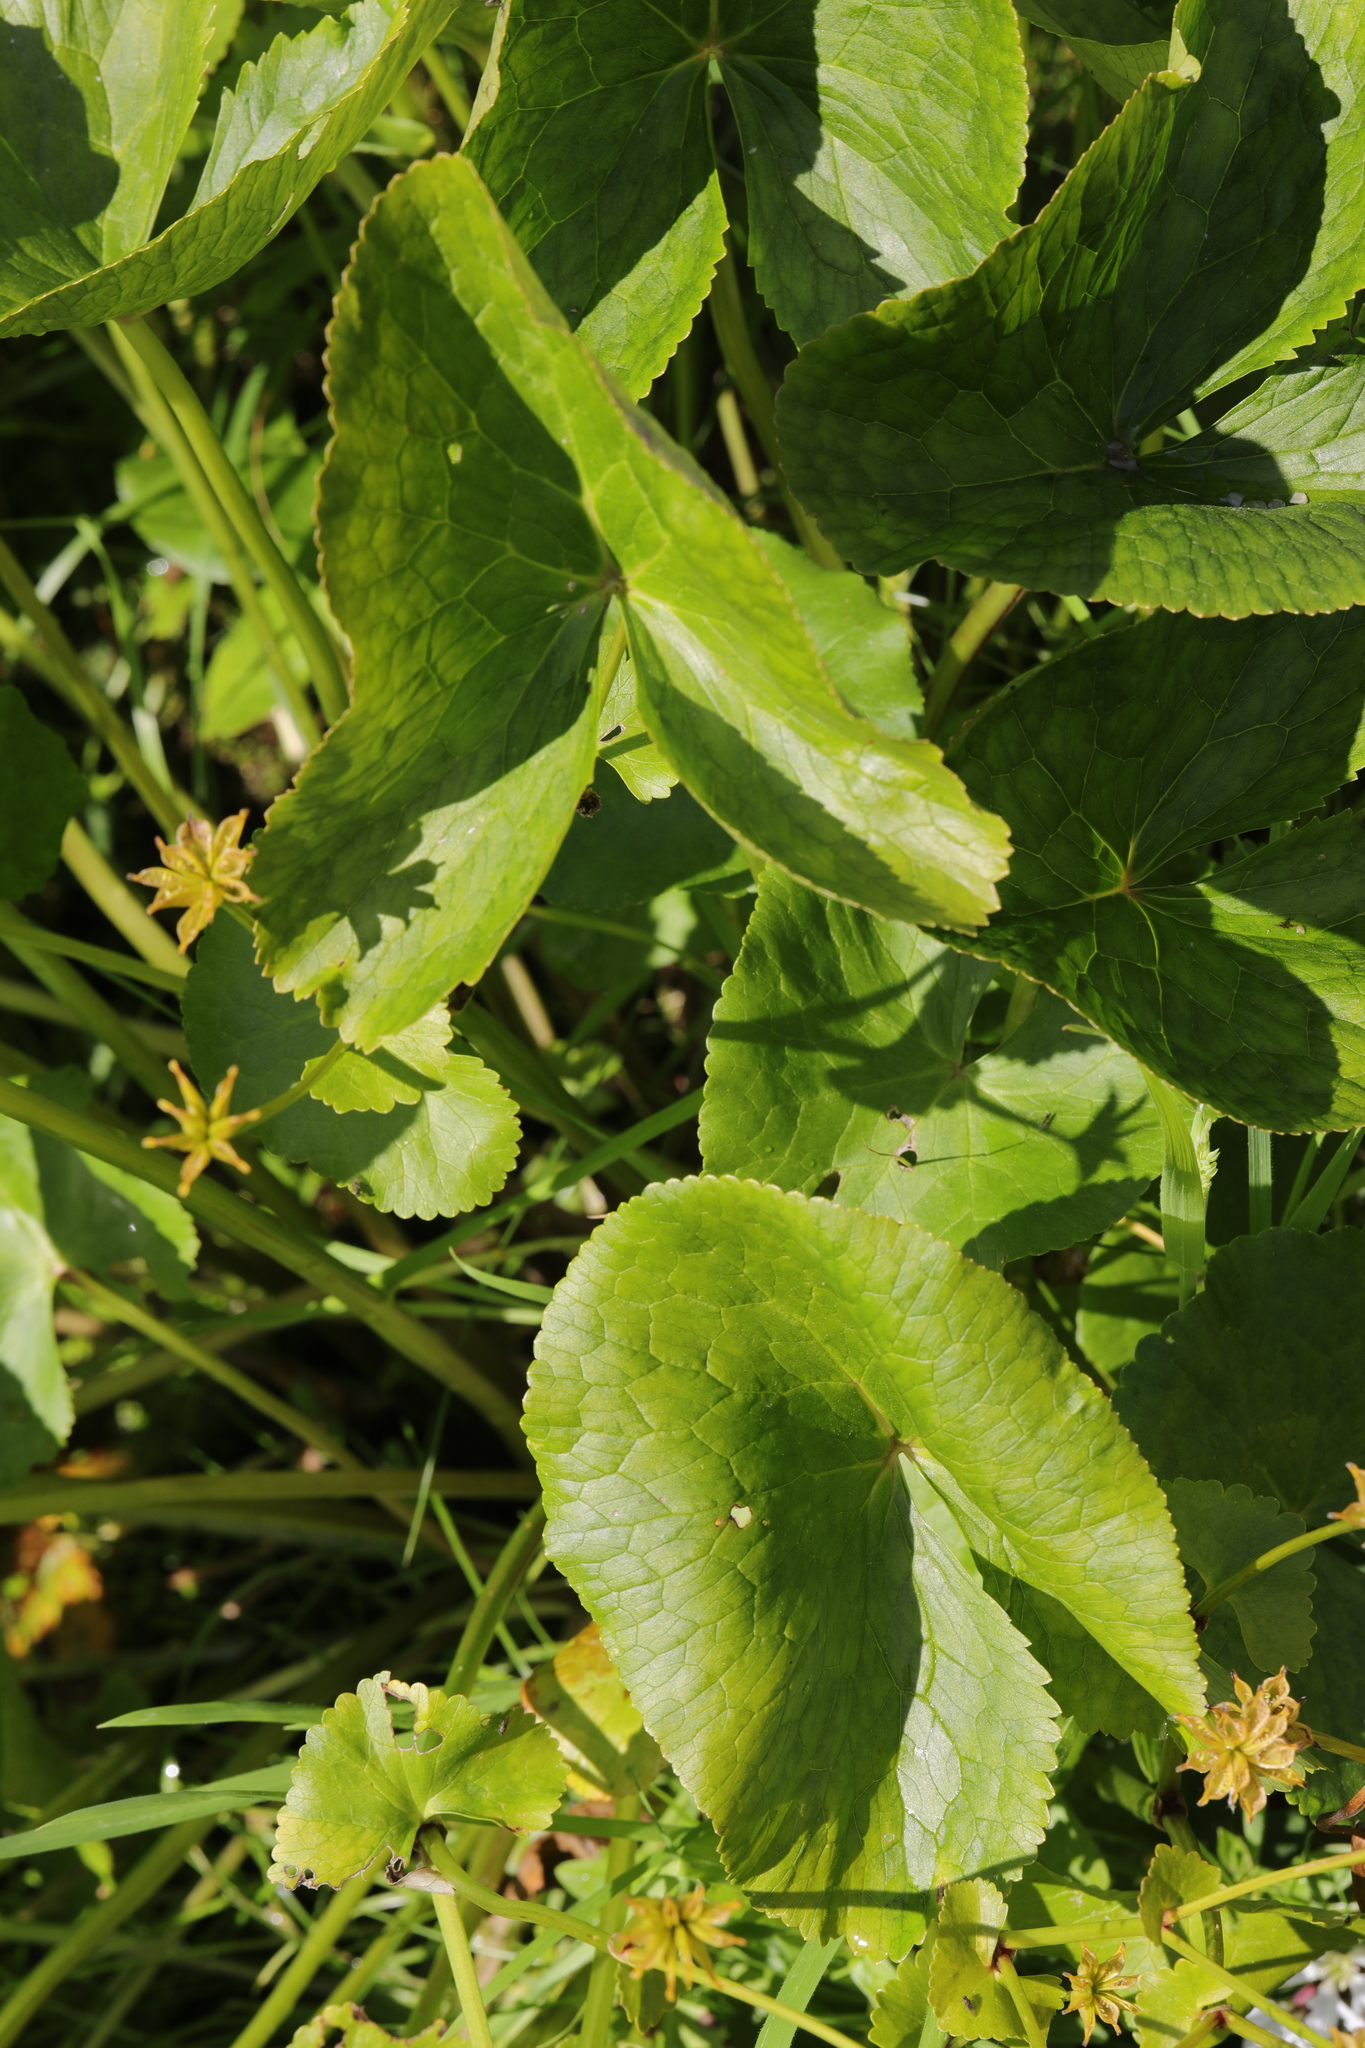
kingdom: Plantae
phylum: Tracheophyta
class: Magnoliopsida
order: Ranunculales
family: Ranunculaceae
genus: Caltha
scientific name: Caltha palustris
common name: Marsh marigold
